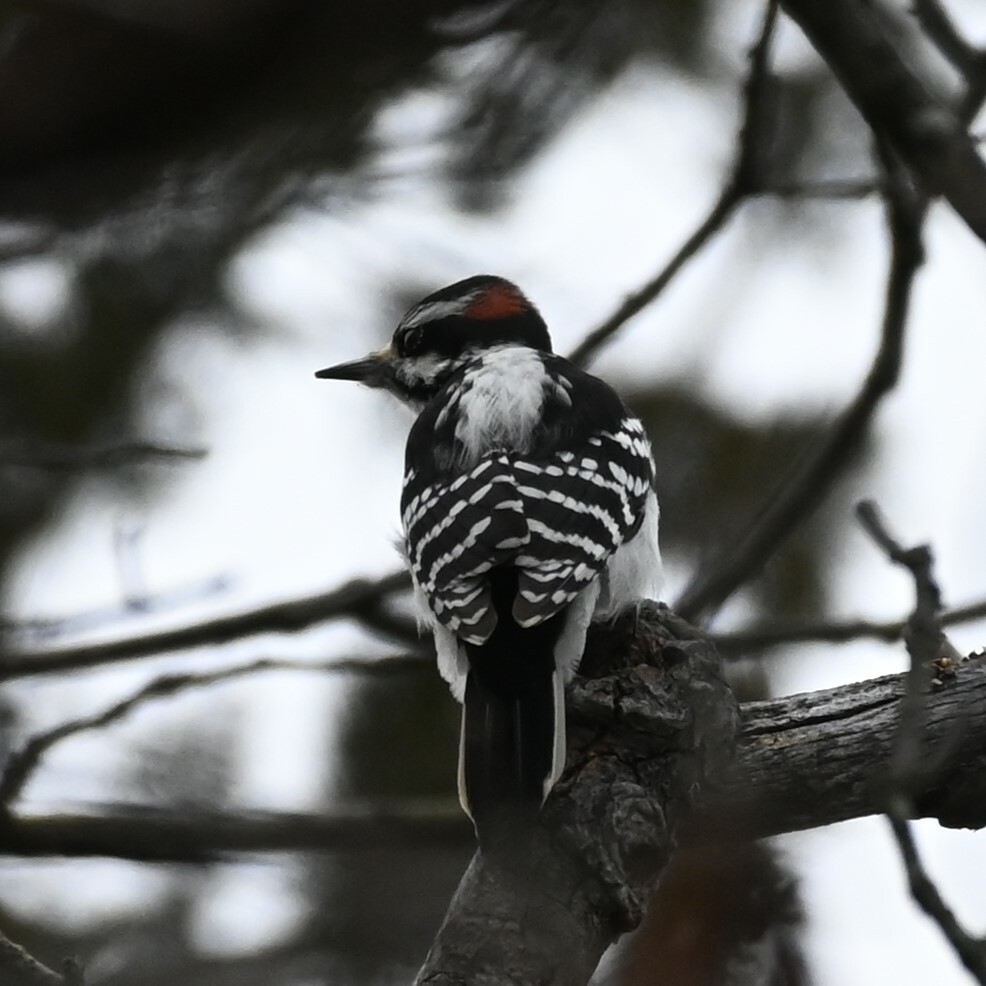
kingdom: Animalia
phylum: Chordata
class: Aves
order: Piciformes
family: Picidae
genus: Leuconotopicus
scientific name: Leuconotopicus villosus
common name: Hairy woodpecker
